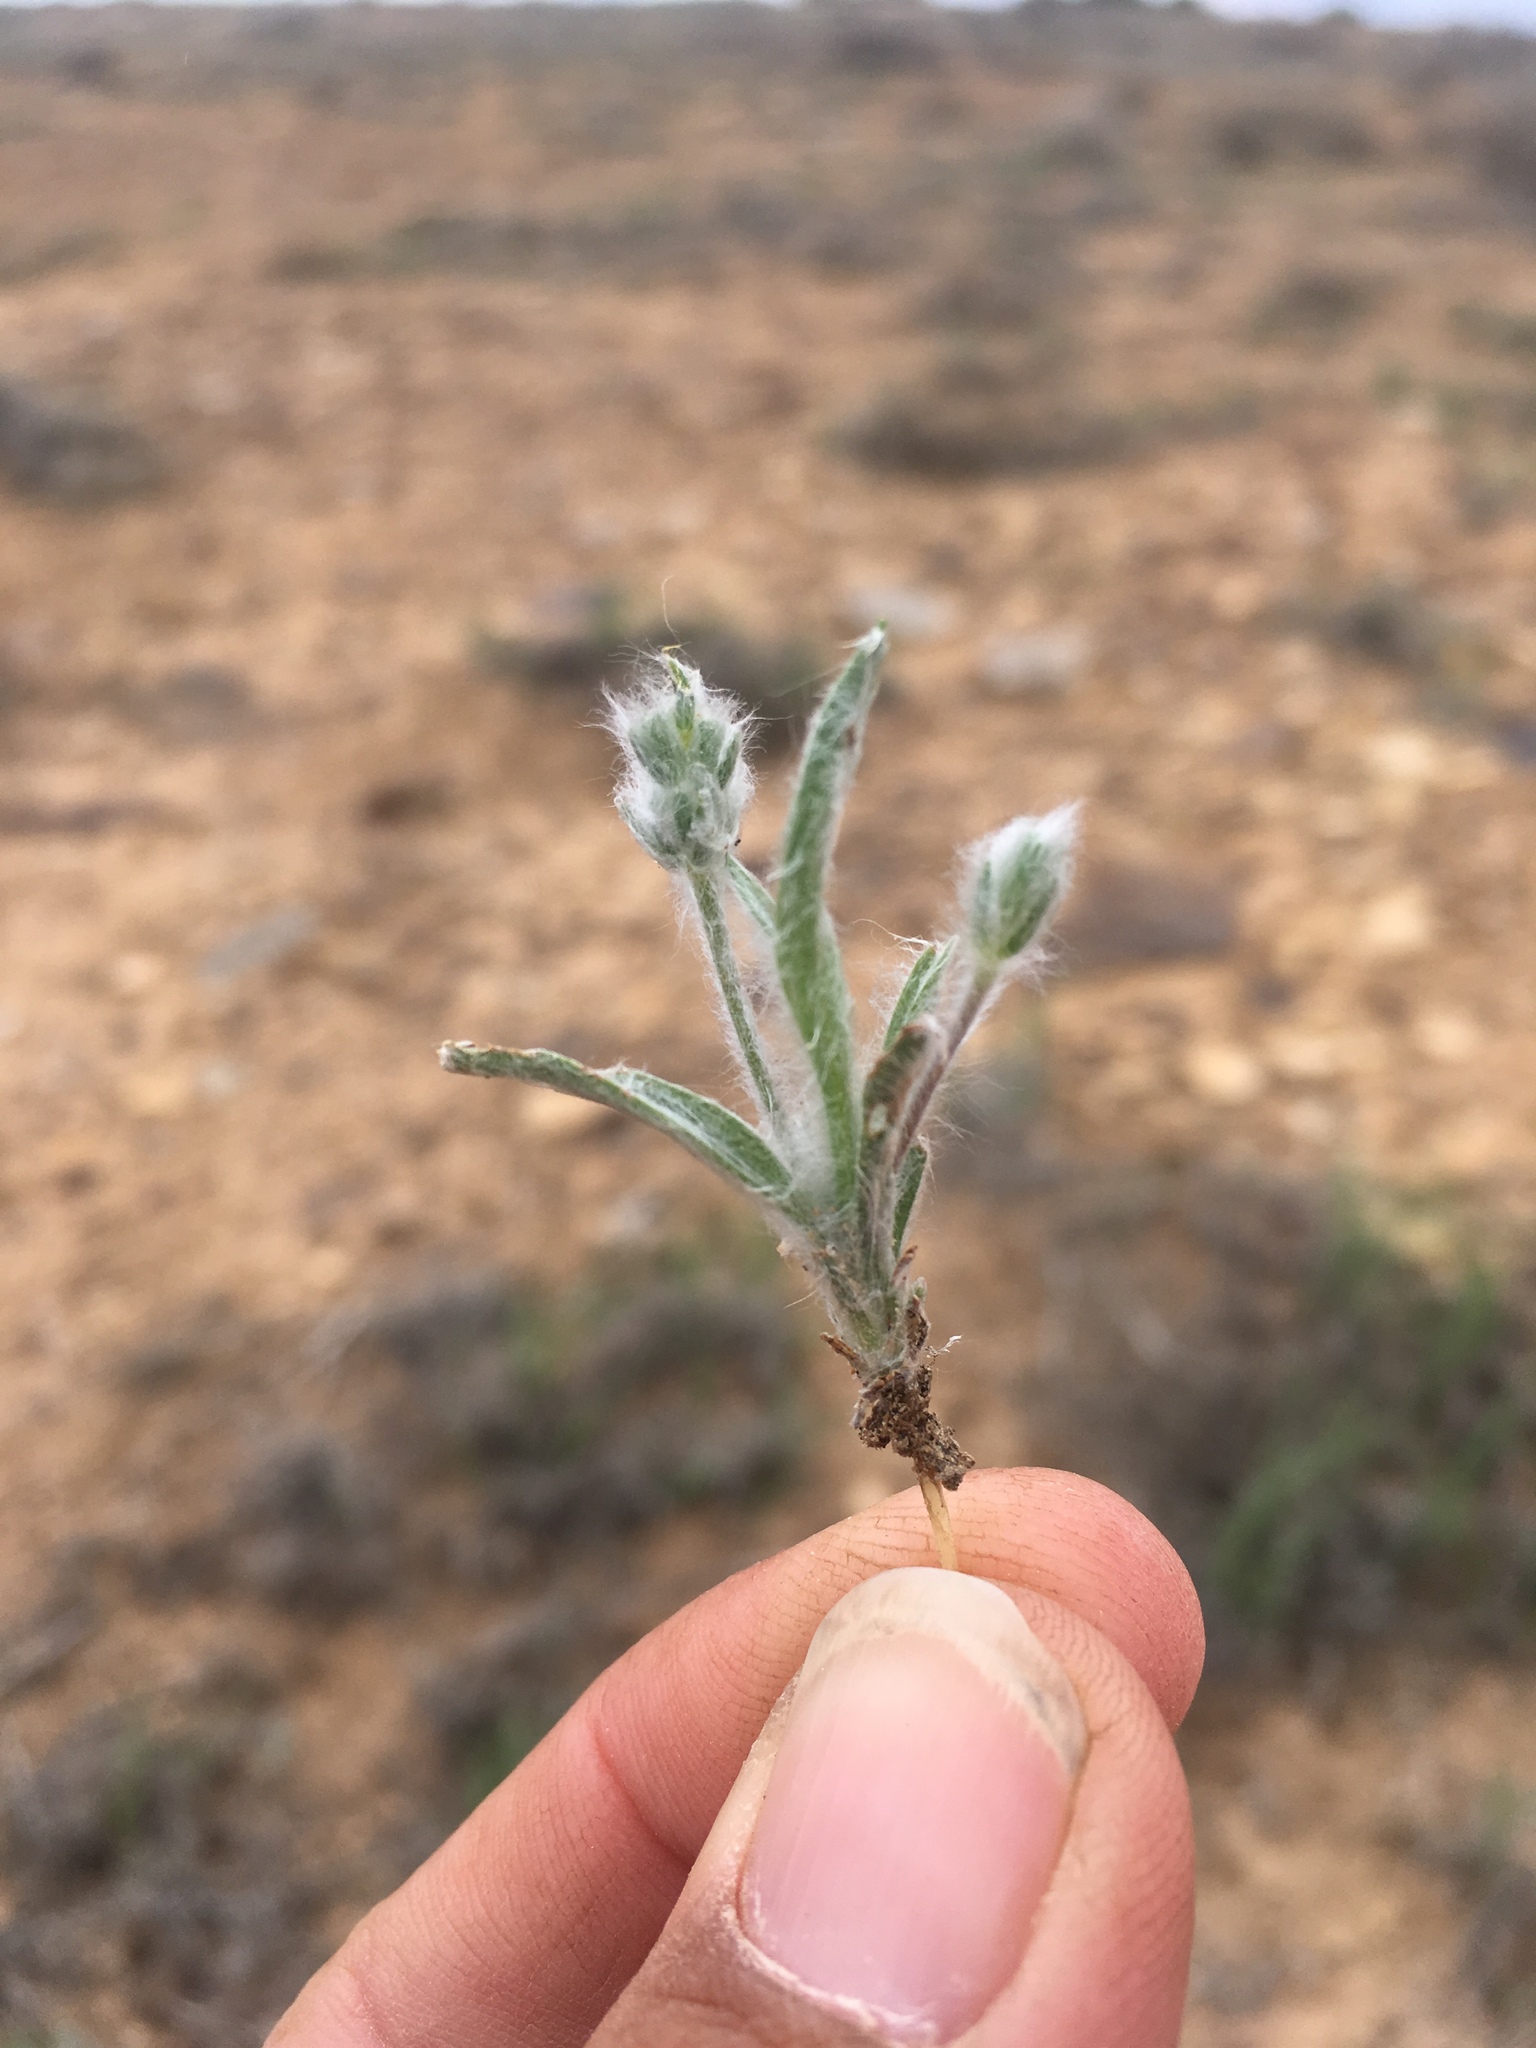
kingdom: Plantae
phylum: Tracheophyta
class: Magnoliopsida
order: Lamiales
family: Plantaginaceae
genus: Plantago
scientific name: Plantago patagonica
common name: Patagonia indian-wheat
